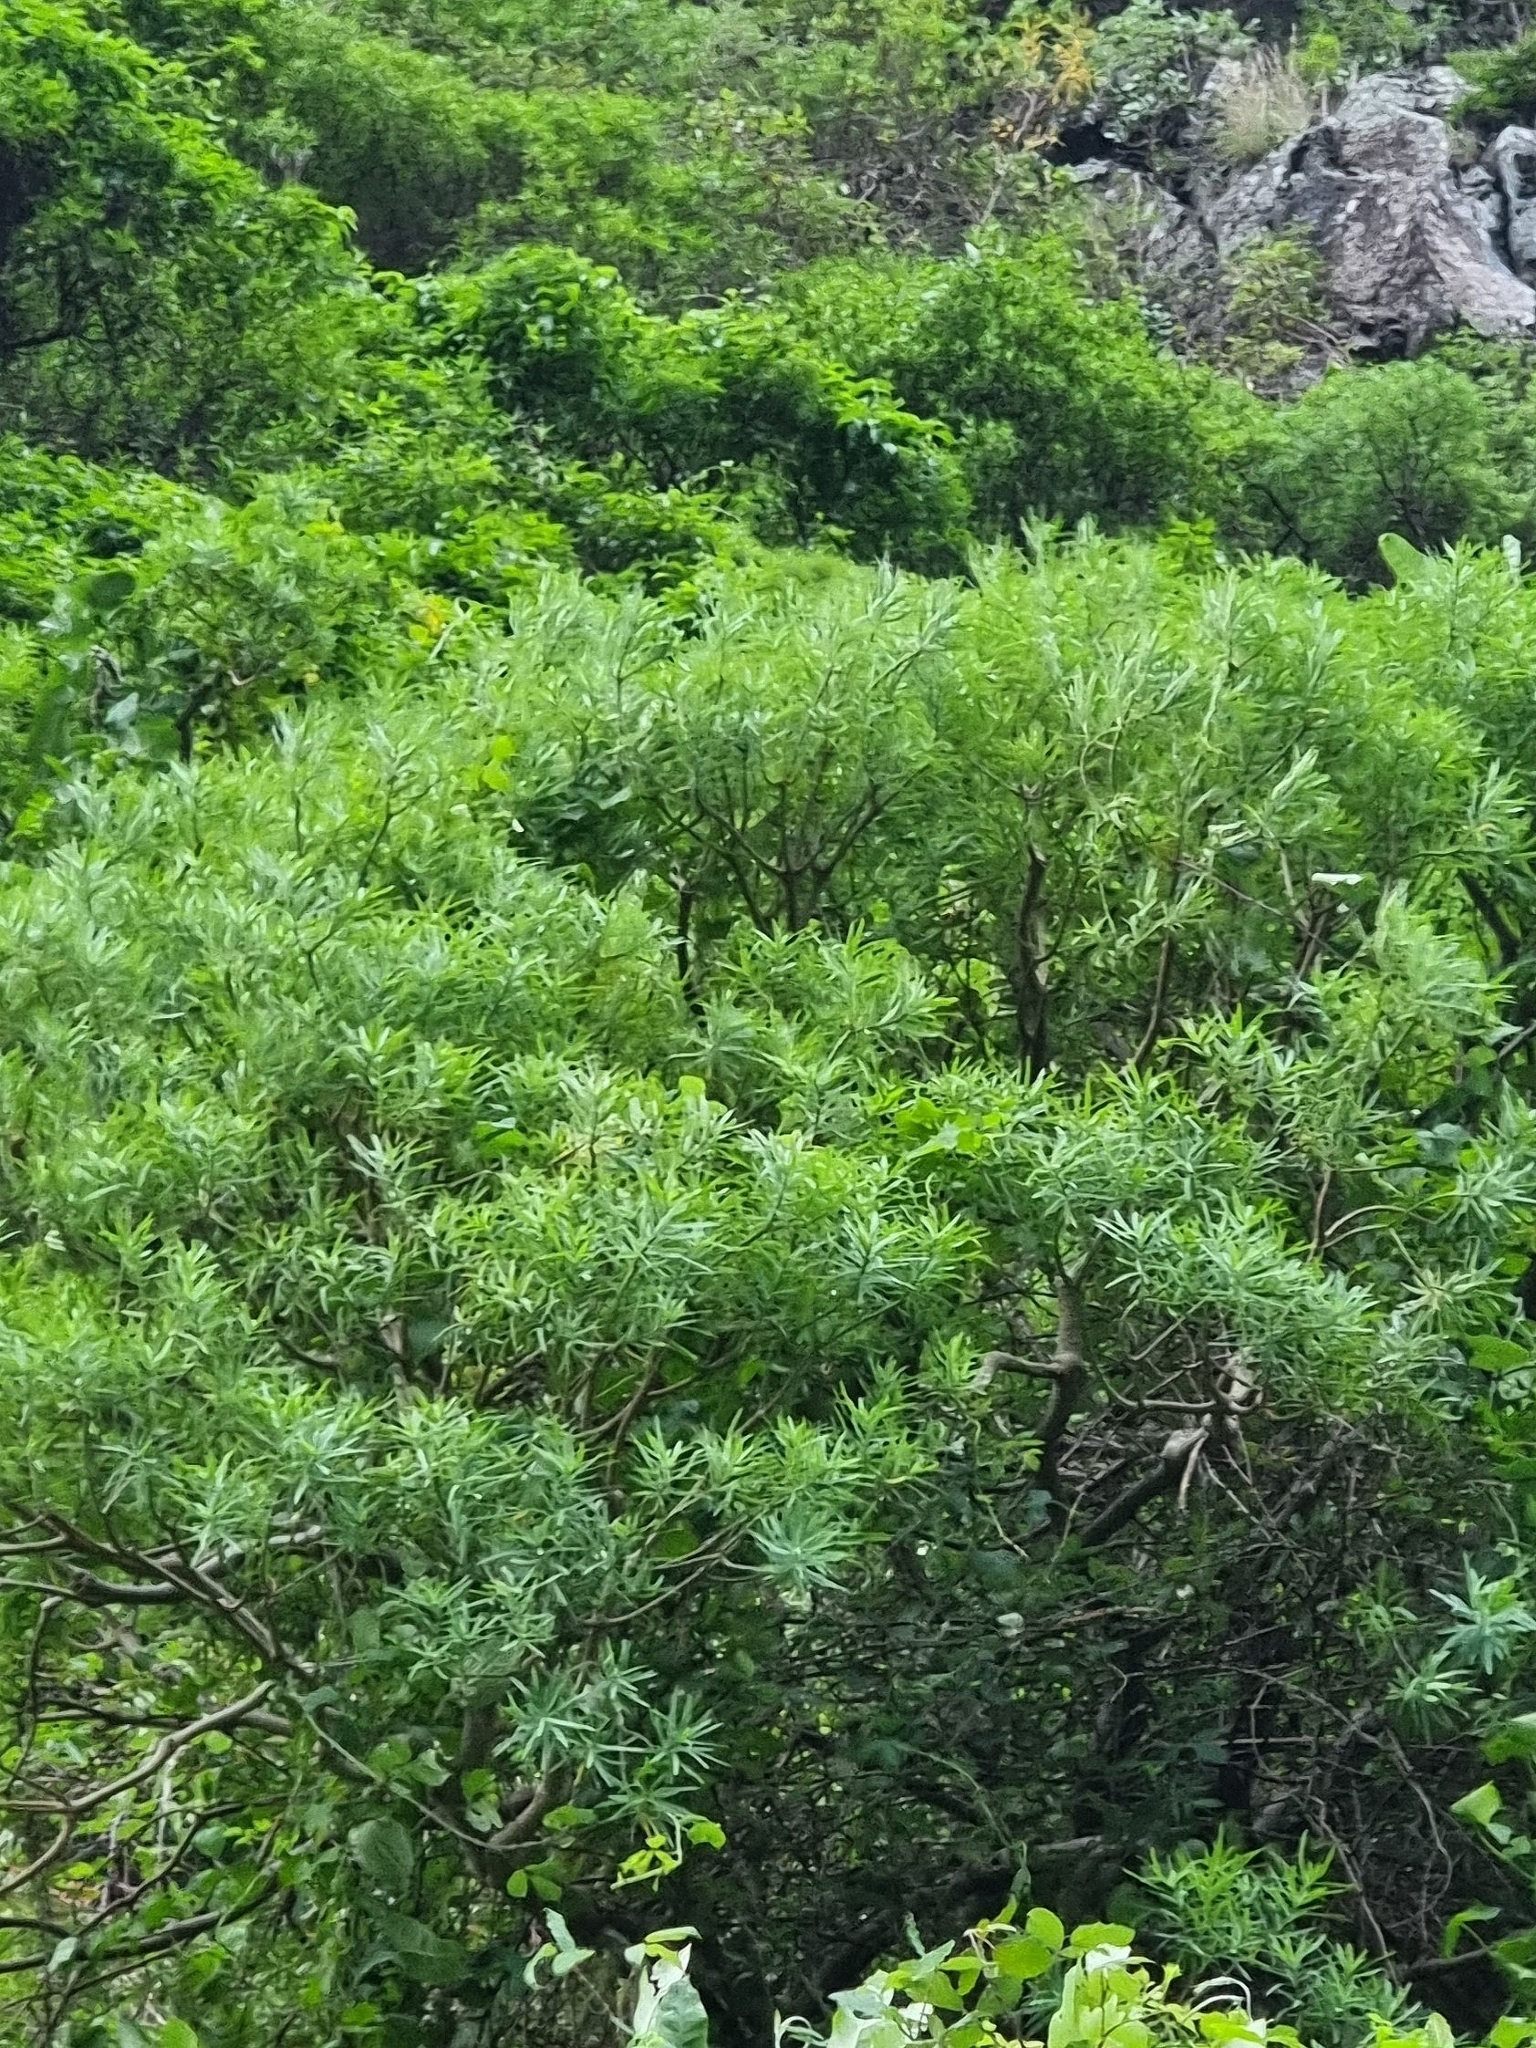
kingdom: Plantae
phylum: Tracheophyta
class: Magnoliopsida
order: Malpighiales
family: Euphorbiaceae
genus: Euphorbia
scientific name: Euphorbia piscatoria
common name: Fish-stunning spurge
